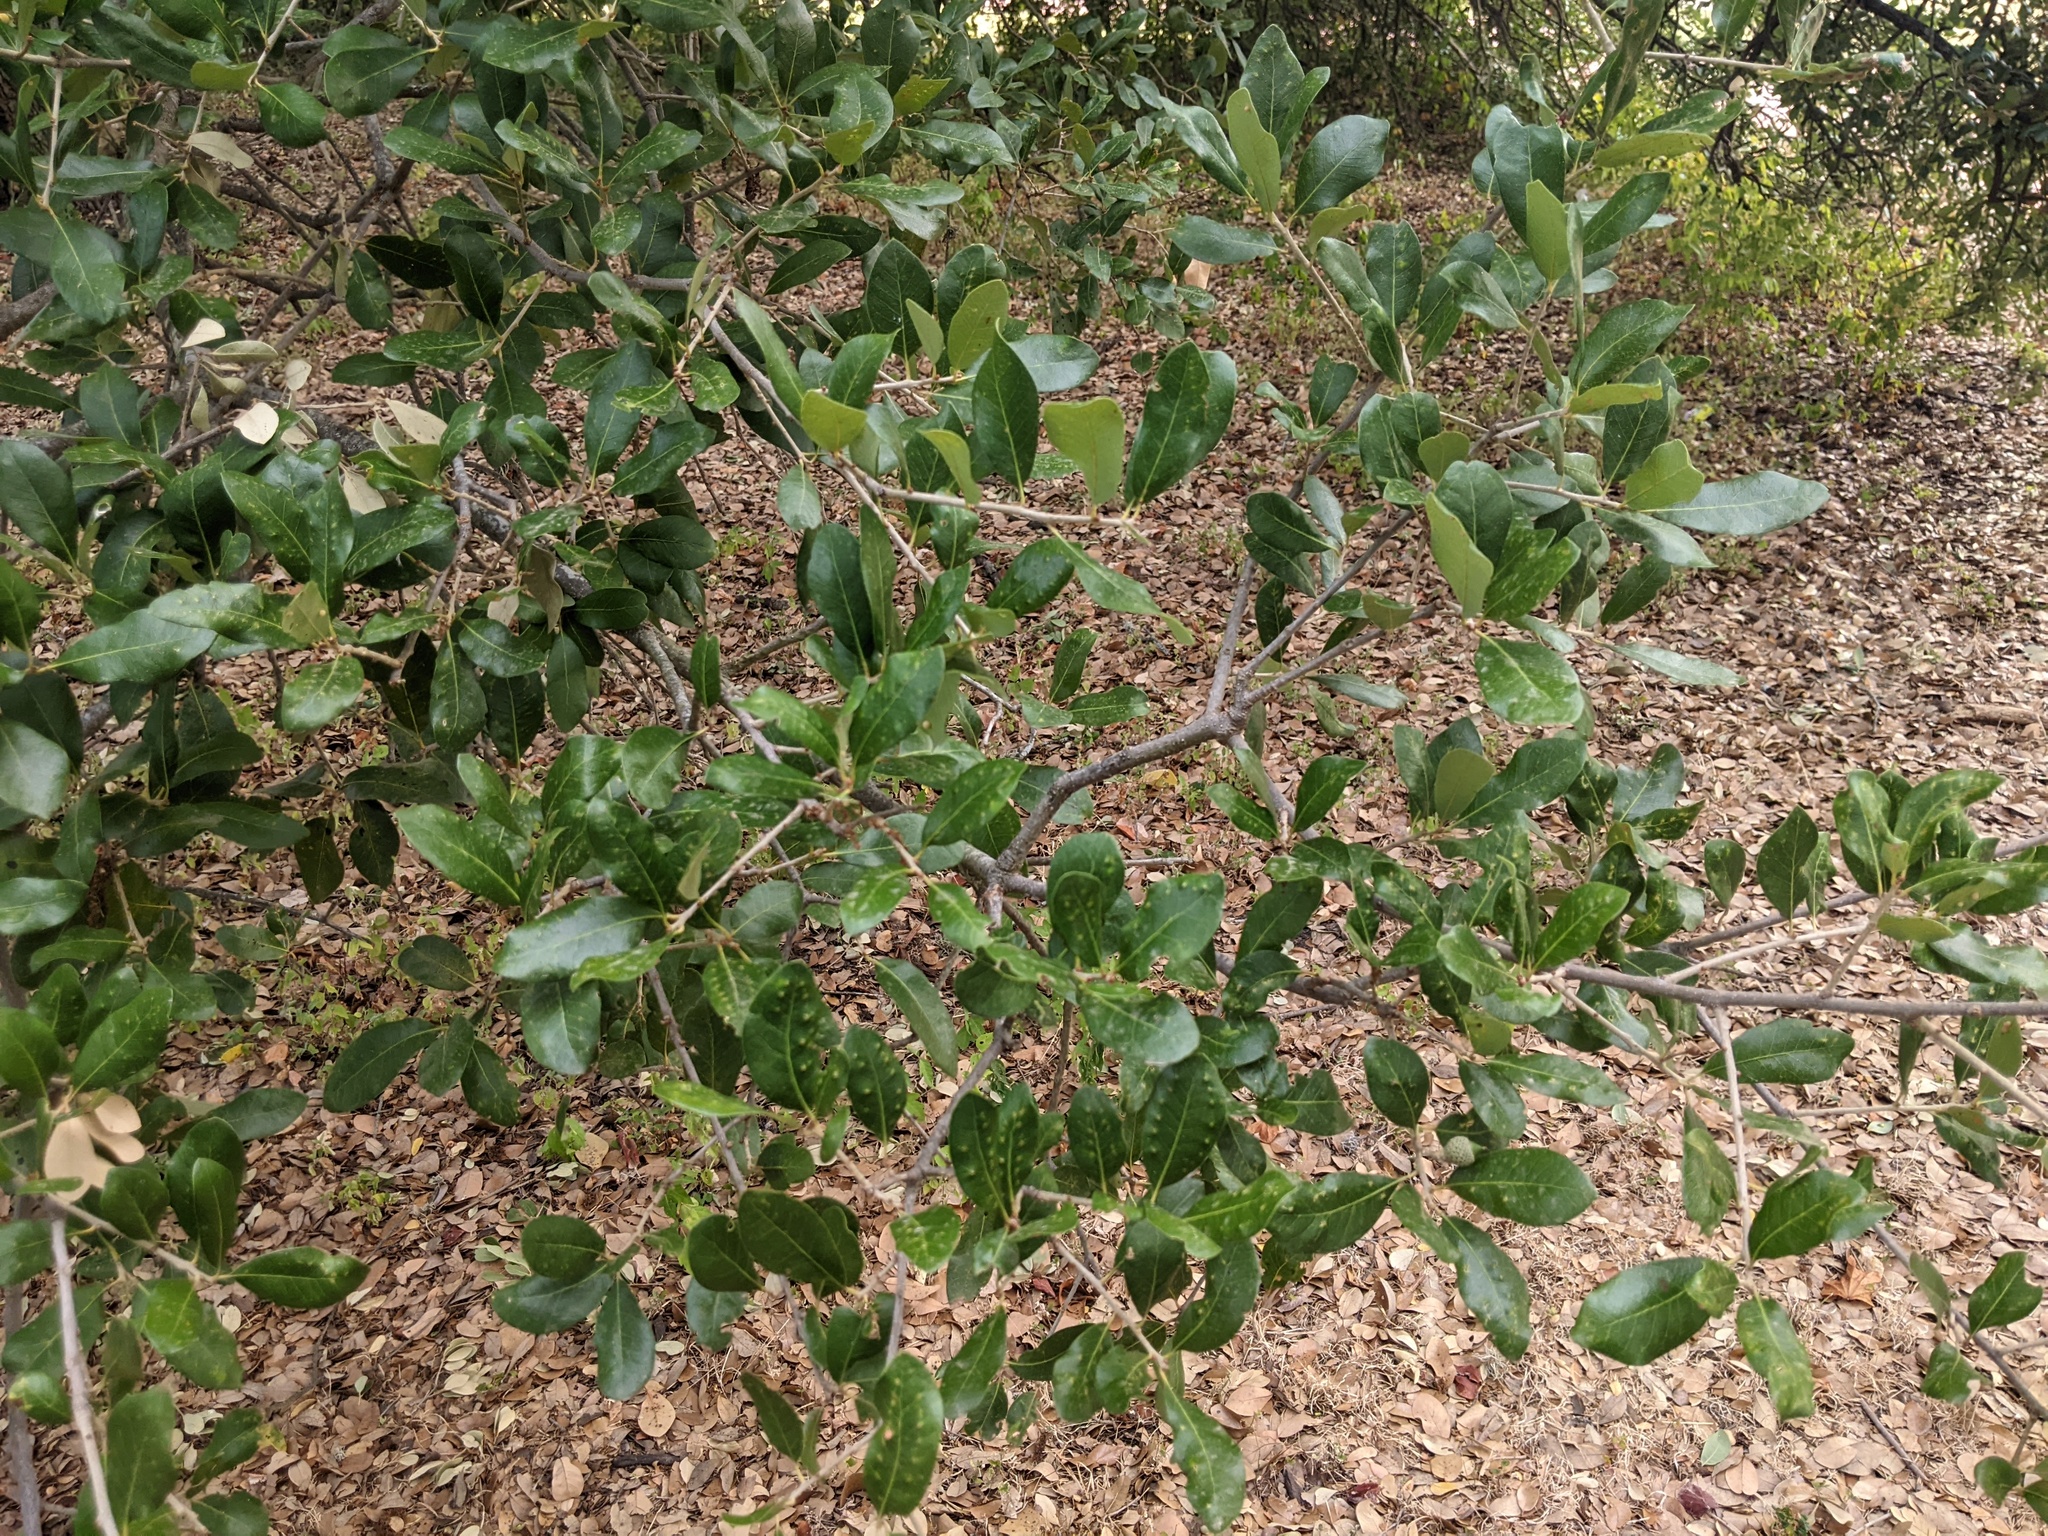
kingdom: Animalia
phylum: Arthropoda
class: Insecta
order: Hymenoptera
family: Cynipidae
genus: Belonocnema
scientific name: Belonocnema kinseyi
